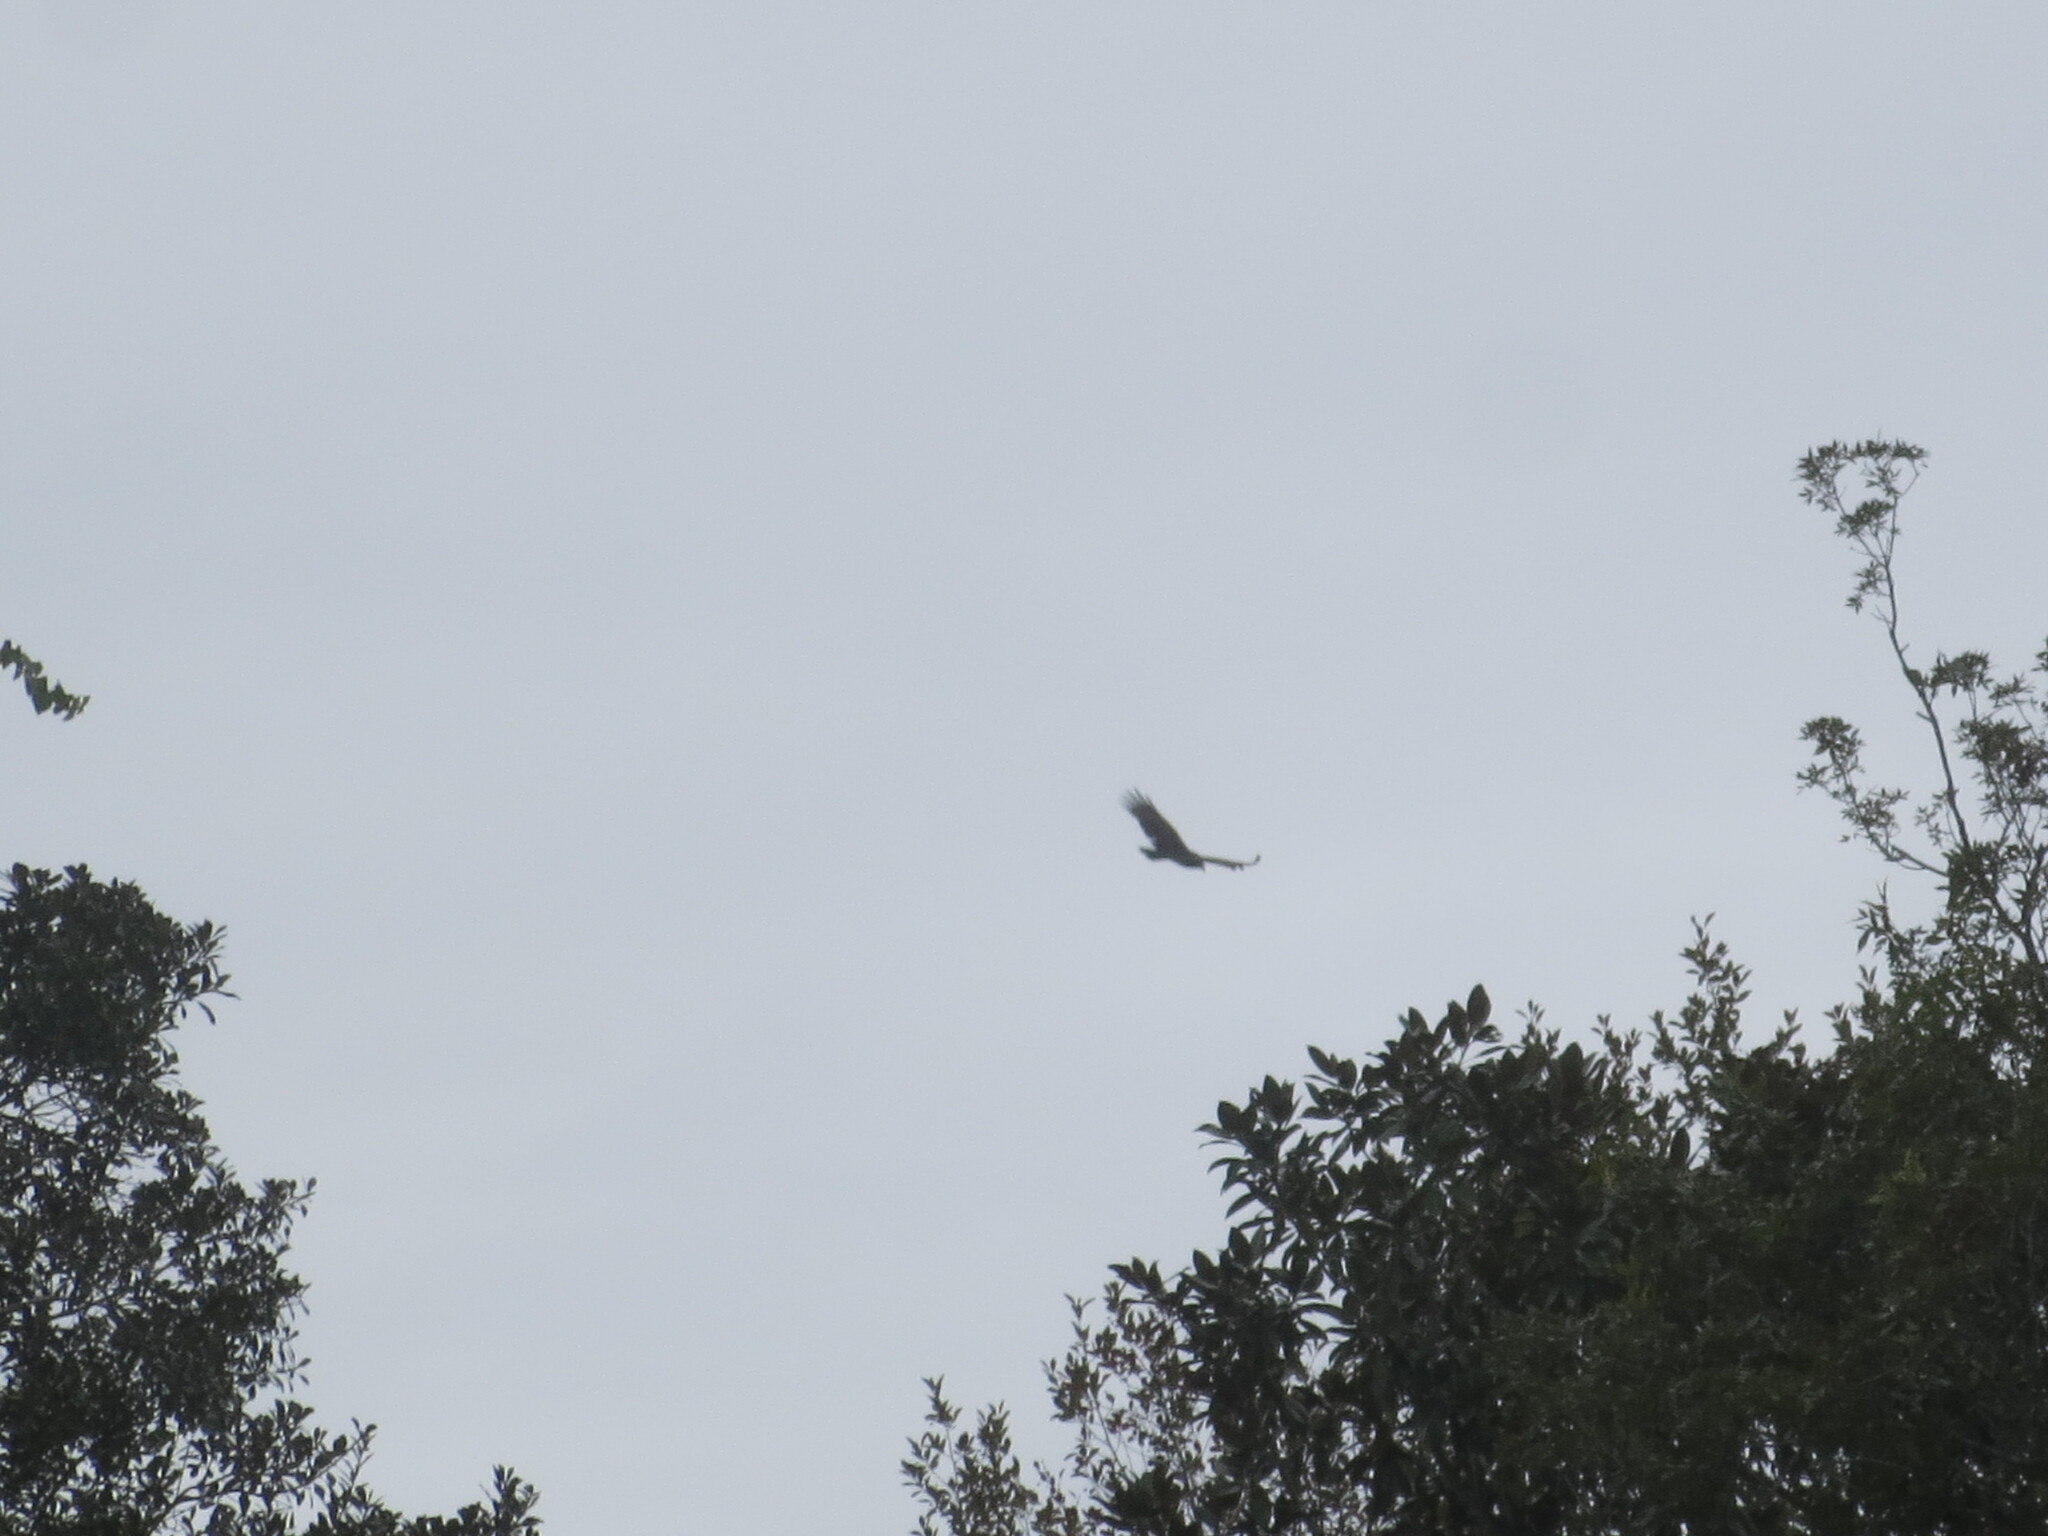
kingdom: Animalia
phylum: Chordata
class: Aves
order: Accipitriformes
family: Cathartidae
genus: Cathartes
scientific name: Cathartes aura
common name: Turkey vulture
